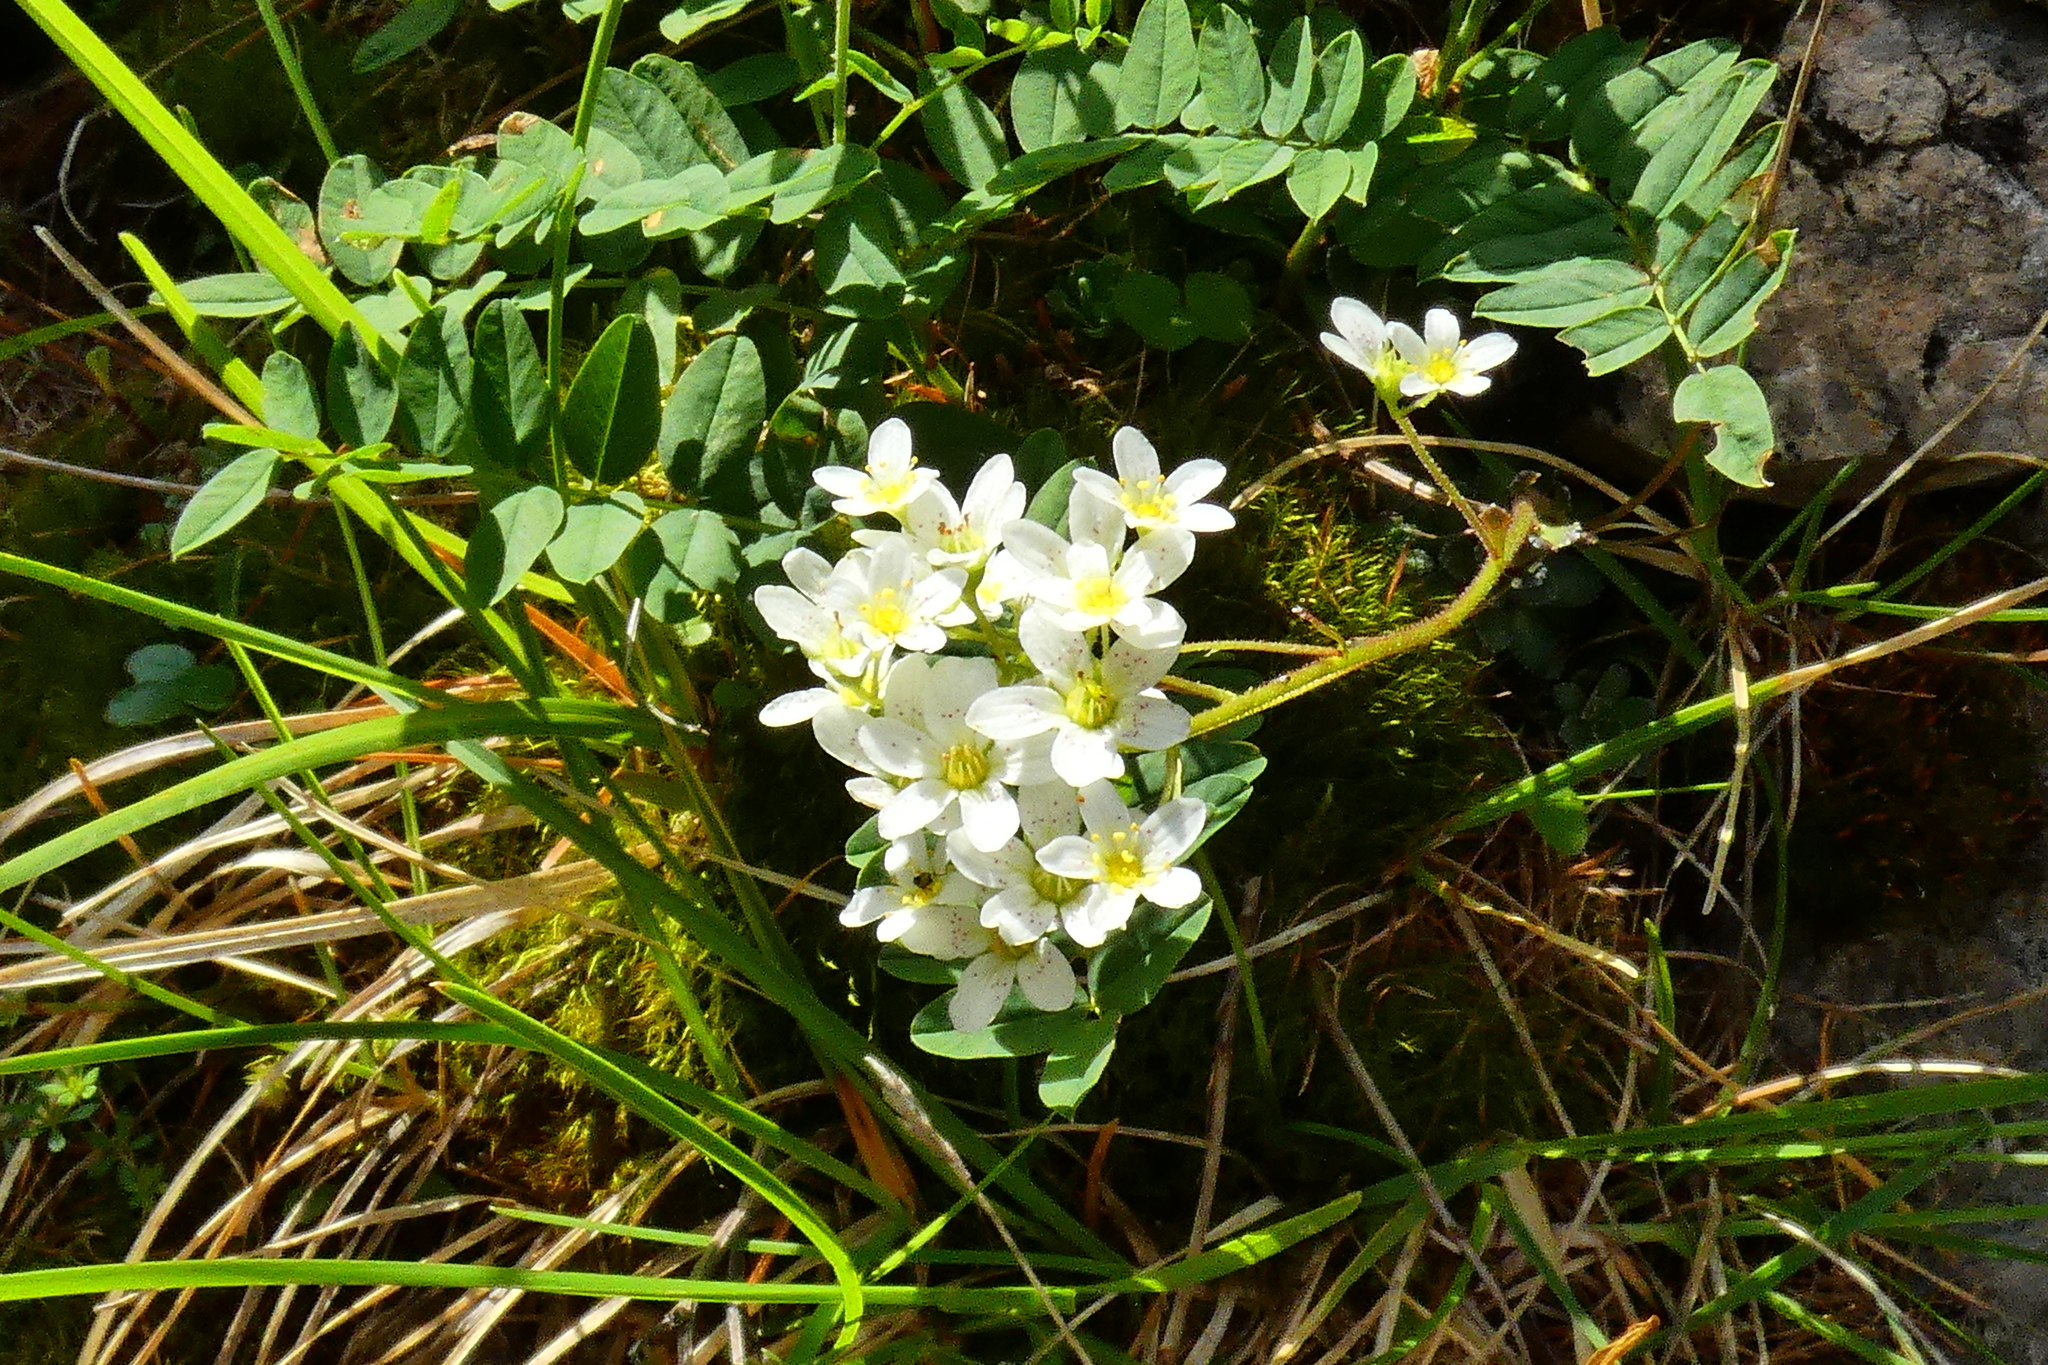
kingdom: Plantae
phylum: Tracheophyta
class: Magnoliopsida
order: Saxifragales
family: Saxifragaceae
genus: Saxifraga
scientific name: Saxifraga paniculata
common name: Livelong saxifrage
